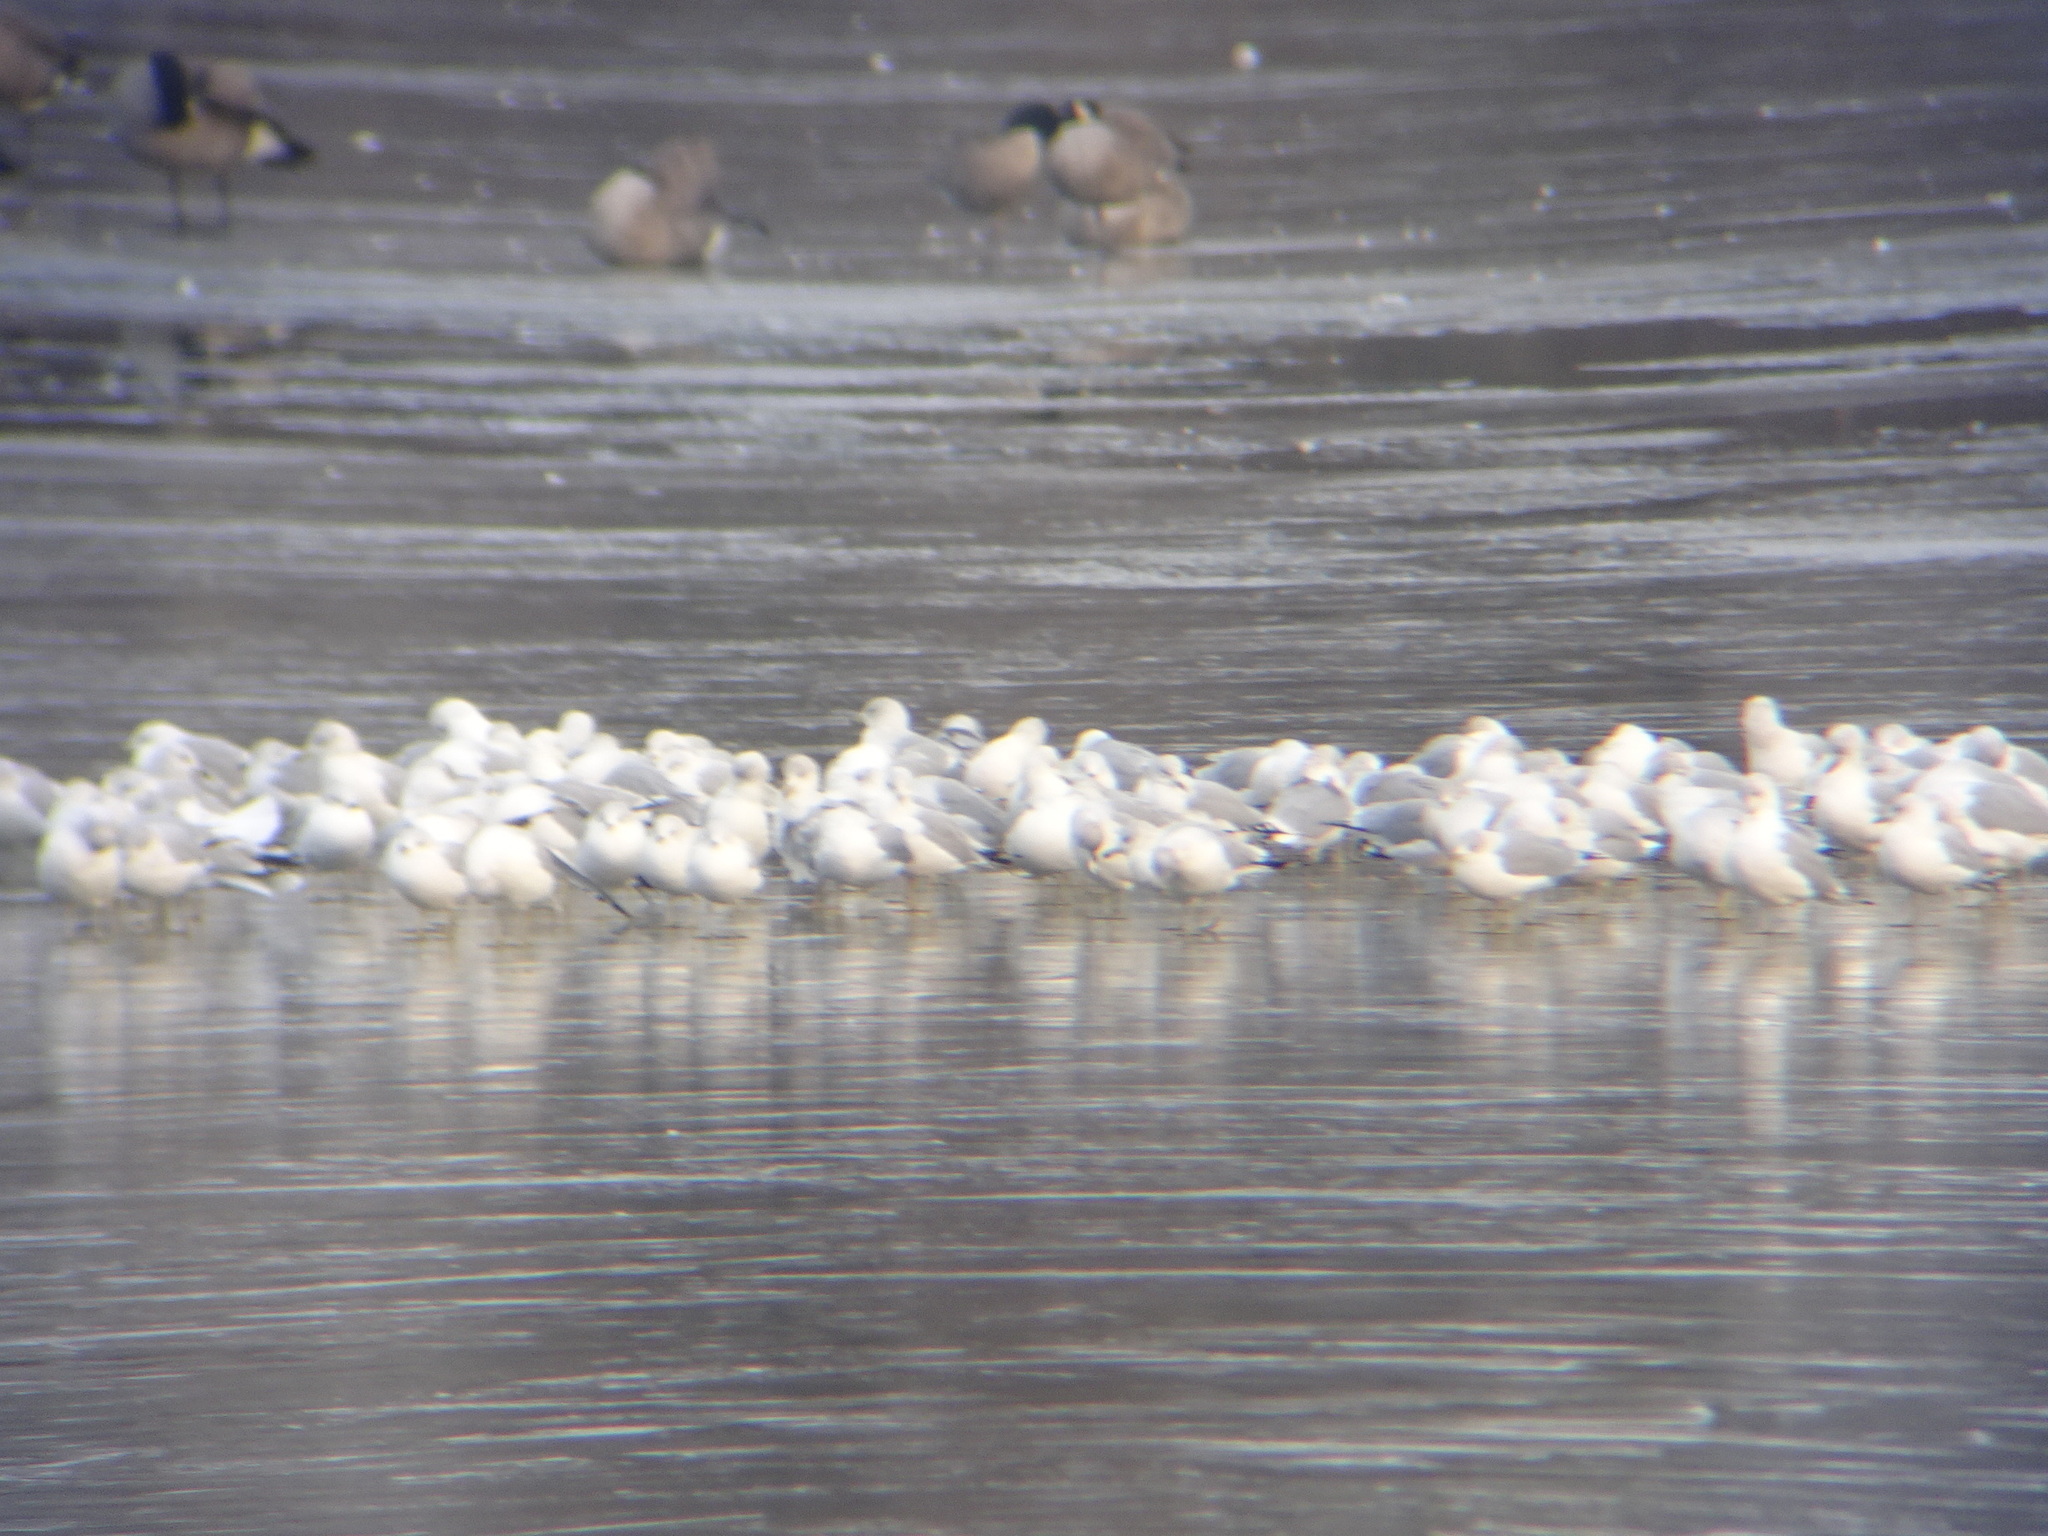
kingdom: Animalia
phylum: Chordata
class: Aves
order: Charadriiformes
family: Laridae
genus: Larus
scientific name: Larus delawarensis
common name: Ring-billed gull
